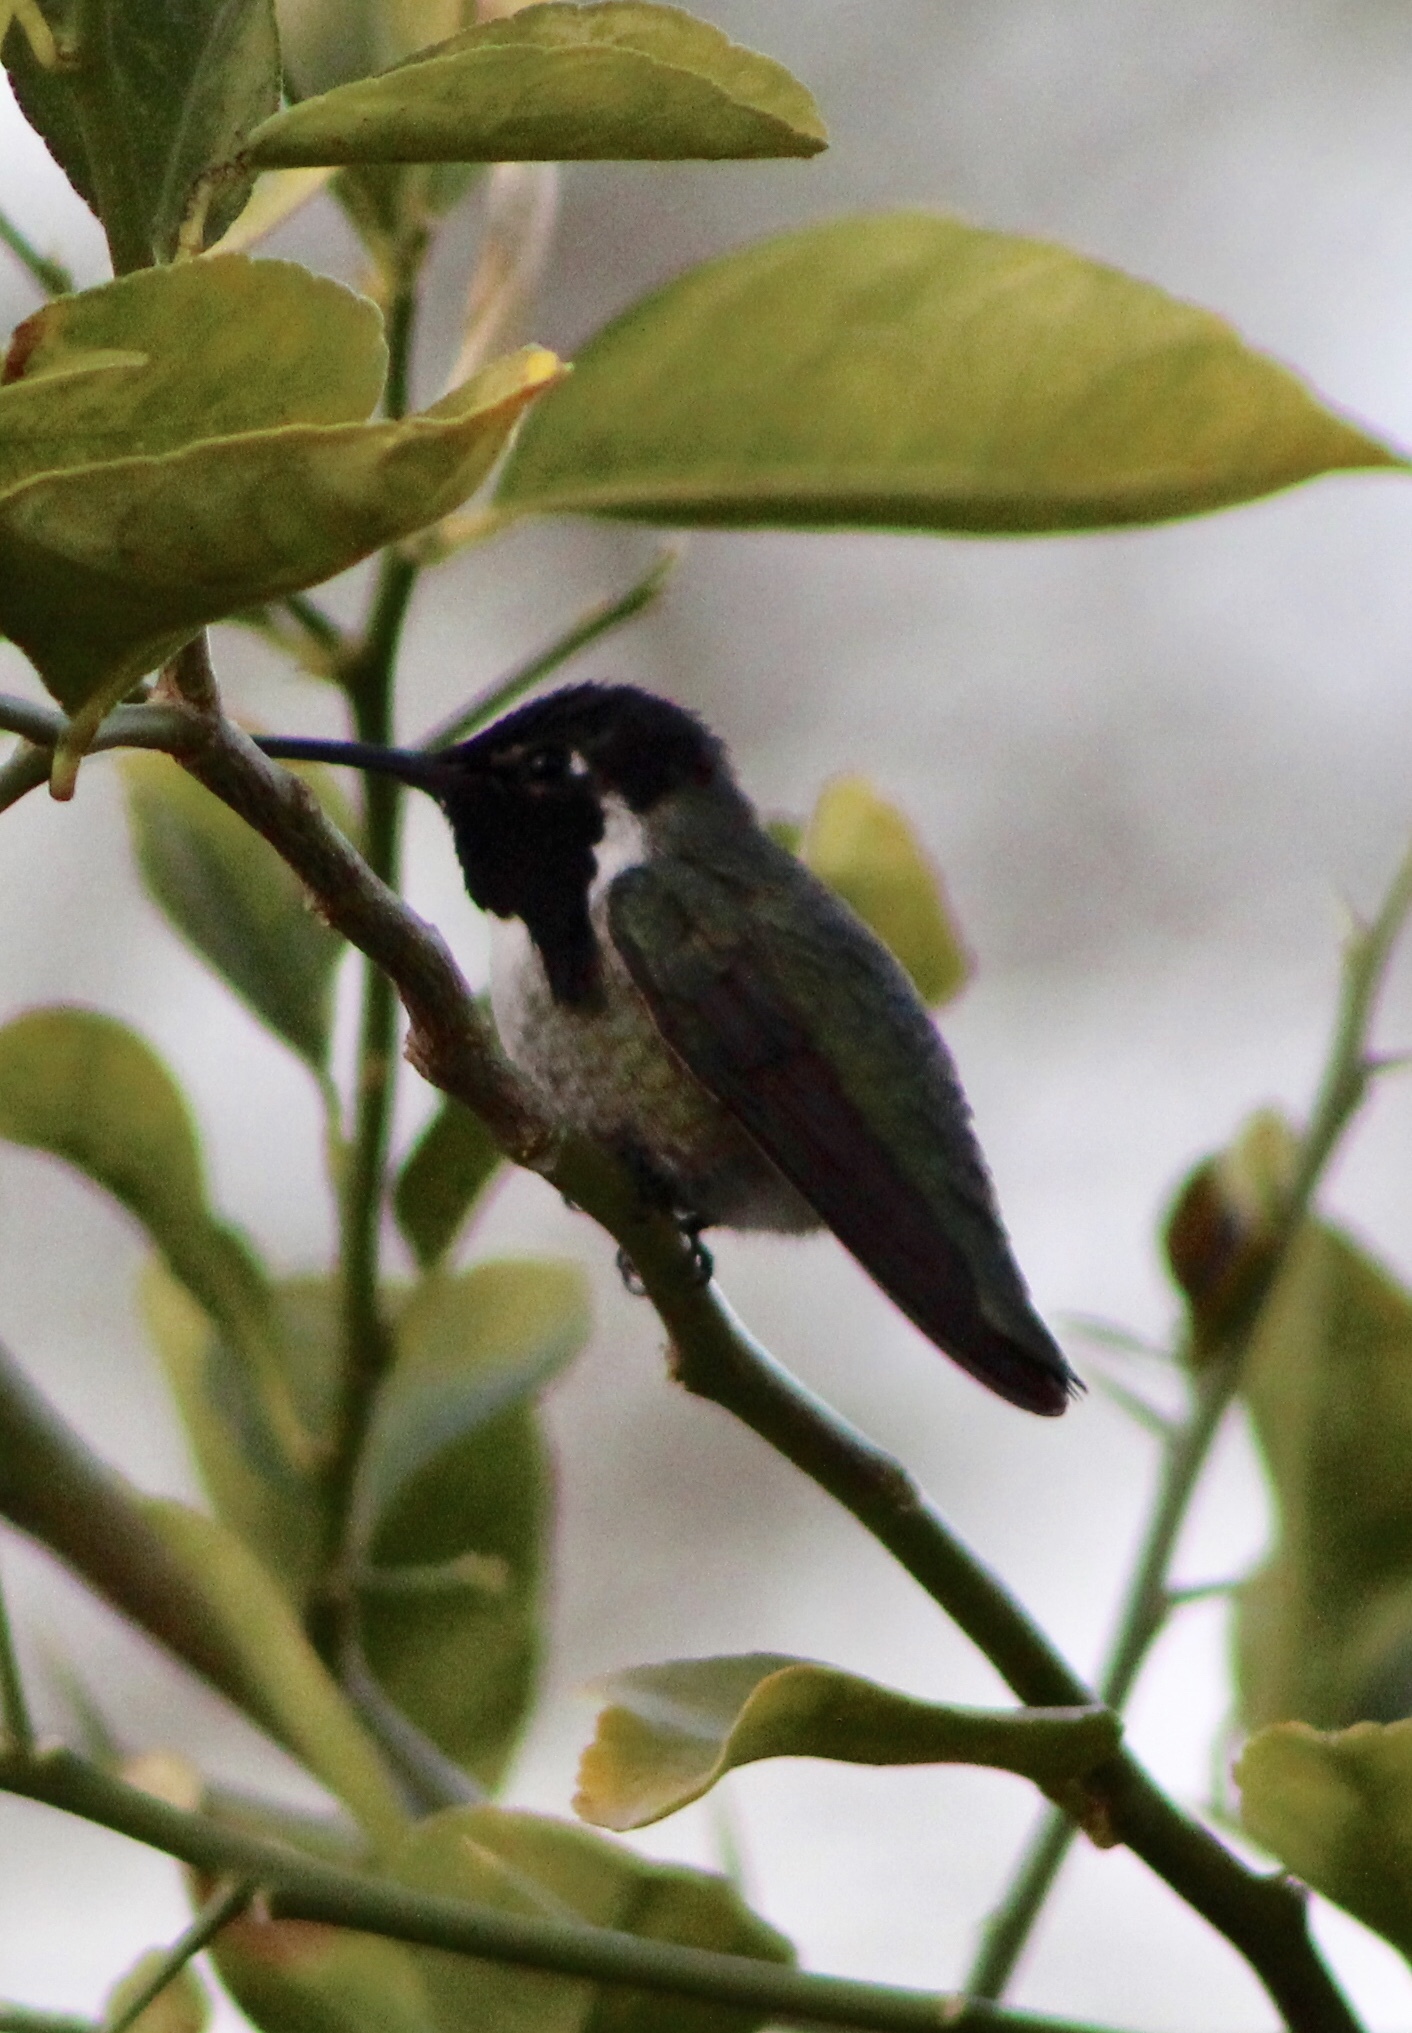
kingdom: Animalia
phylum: Chordata
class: Aves
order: Apodiformes
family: Trochilidae
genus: Calypte
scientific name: Calypte costae
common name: Costa's hummingbird
